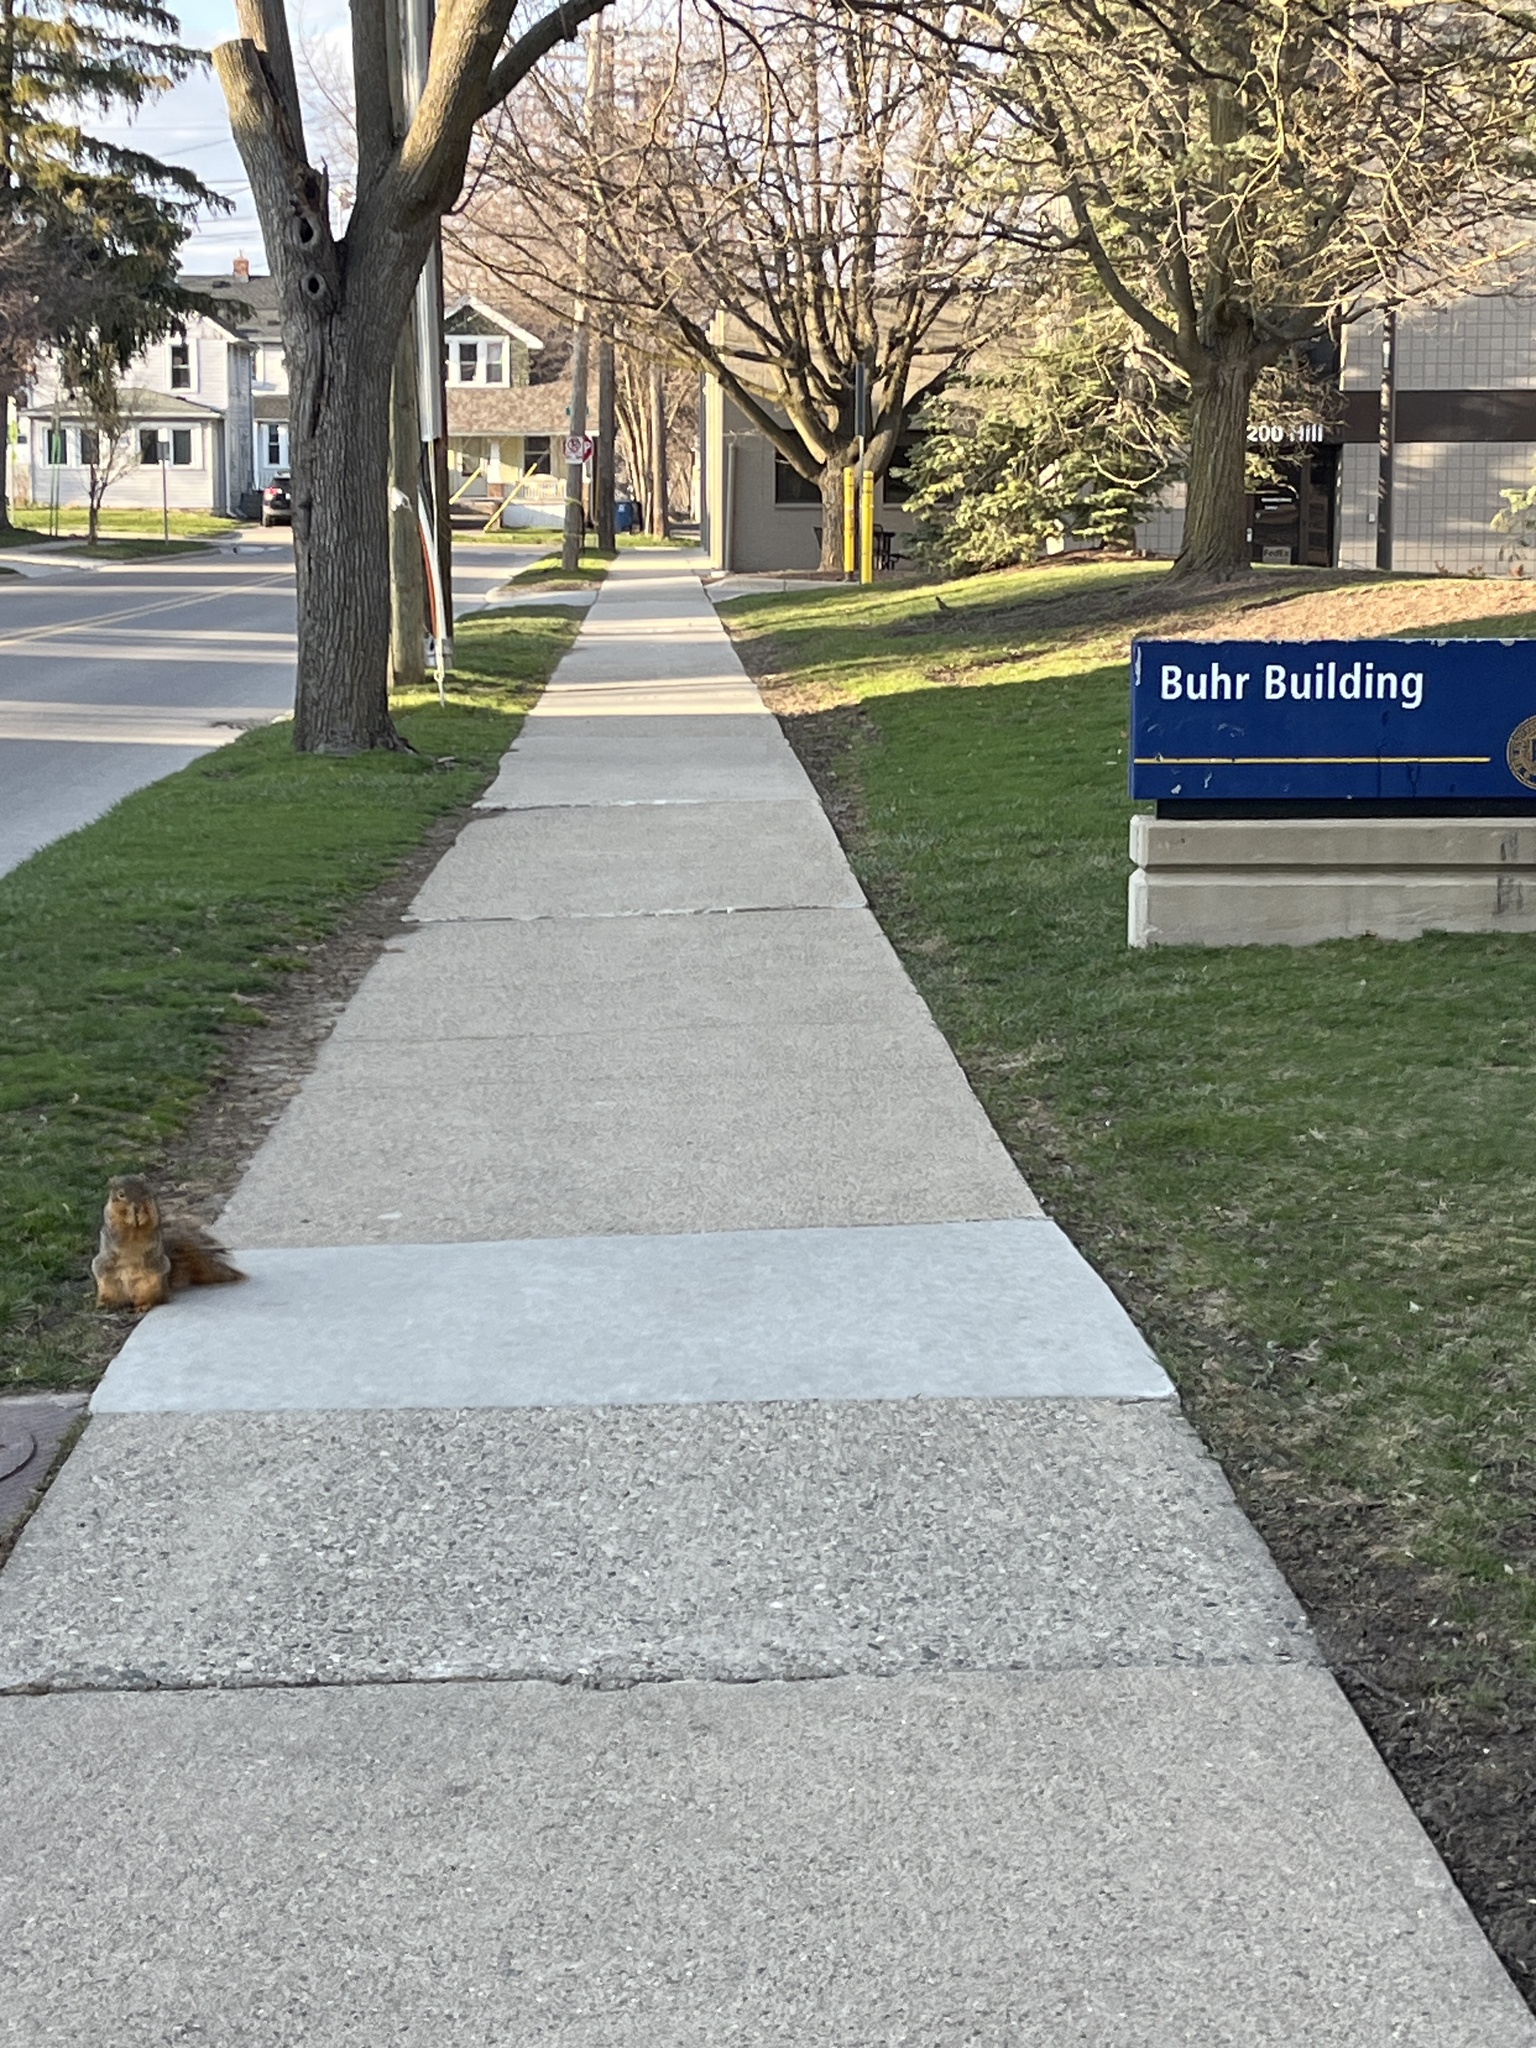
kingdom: Animalia
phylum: Chordata
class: Mammalia
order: Rodentia
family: Sciuridae
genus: Sciurus
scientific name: Sciurus niger
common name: Fox squirrel
